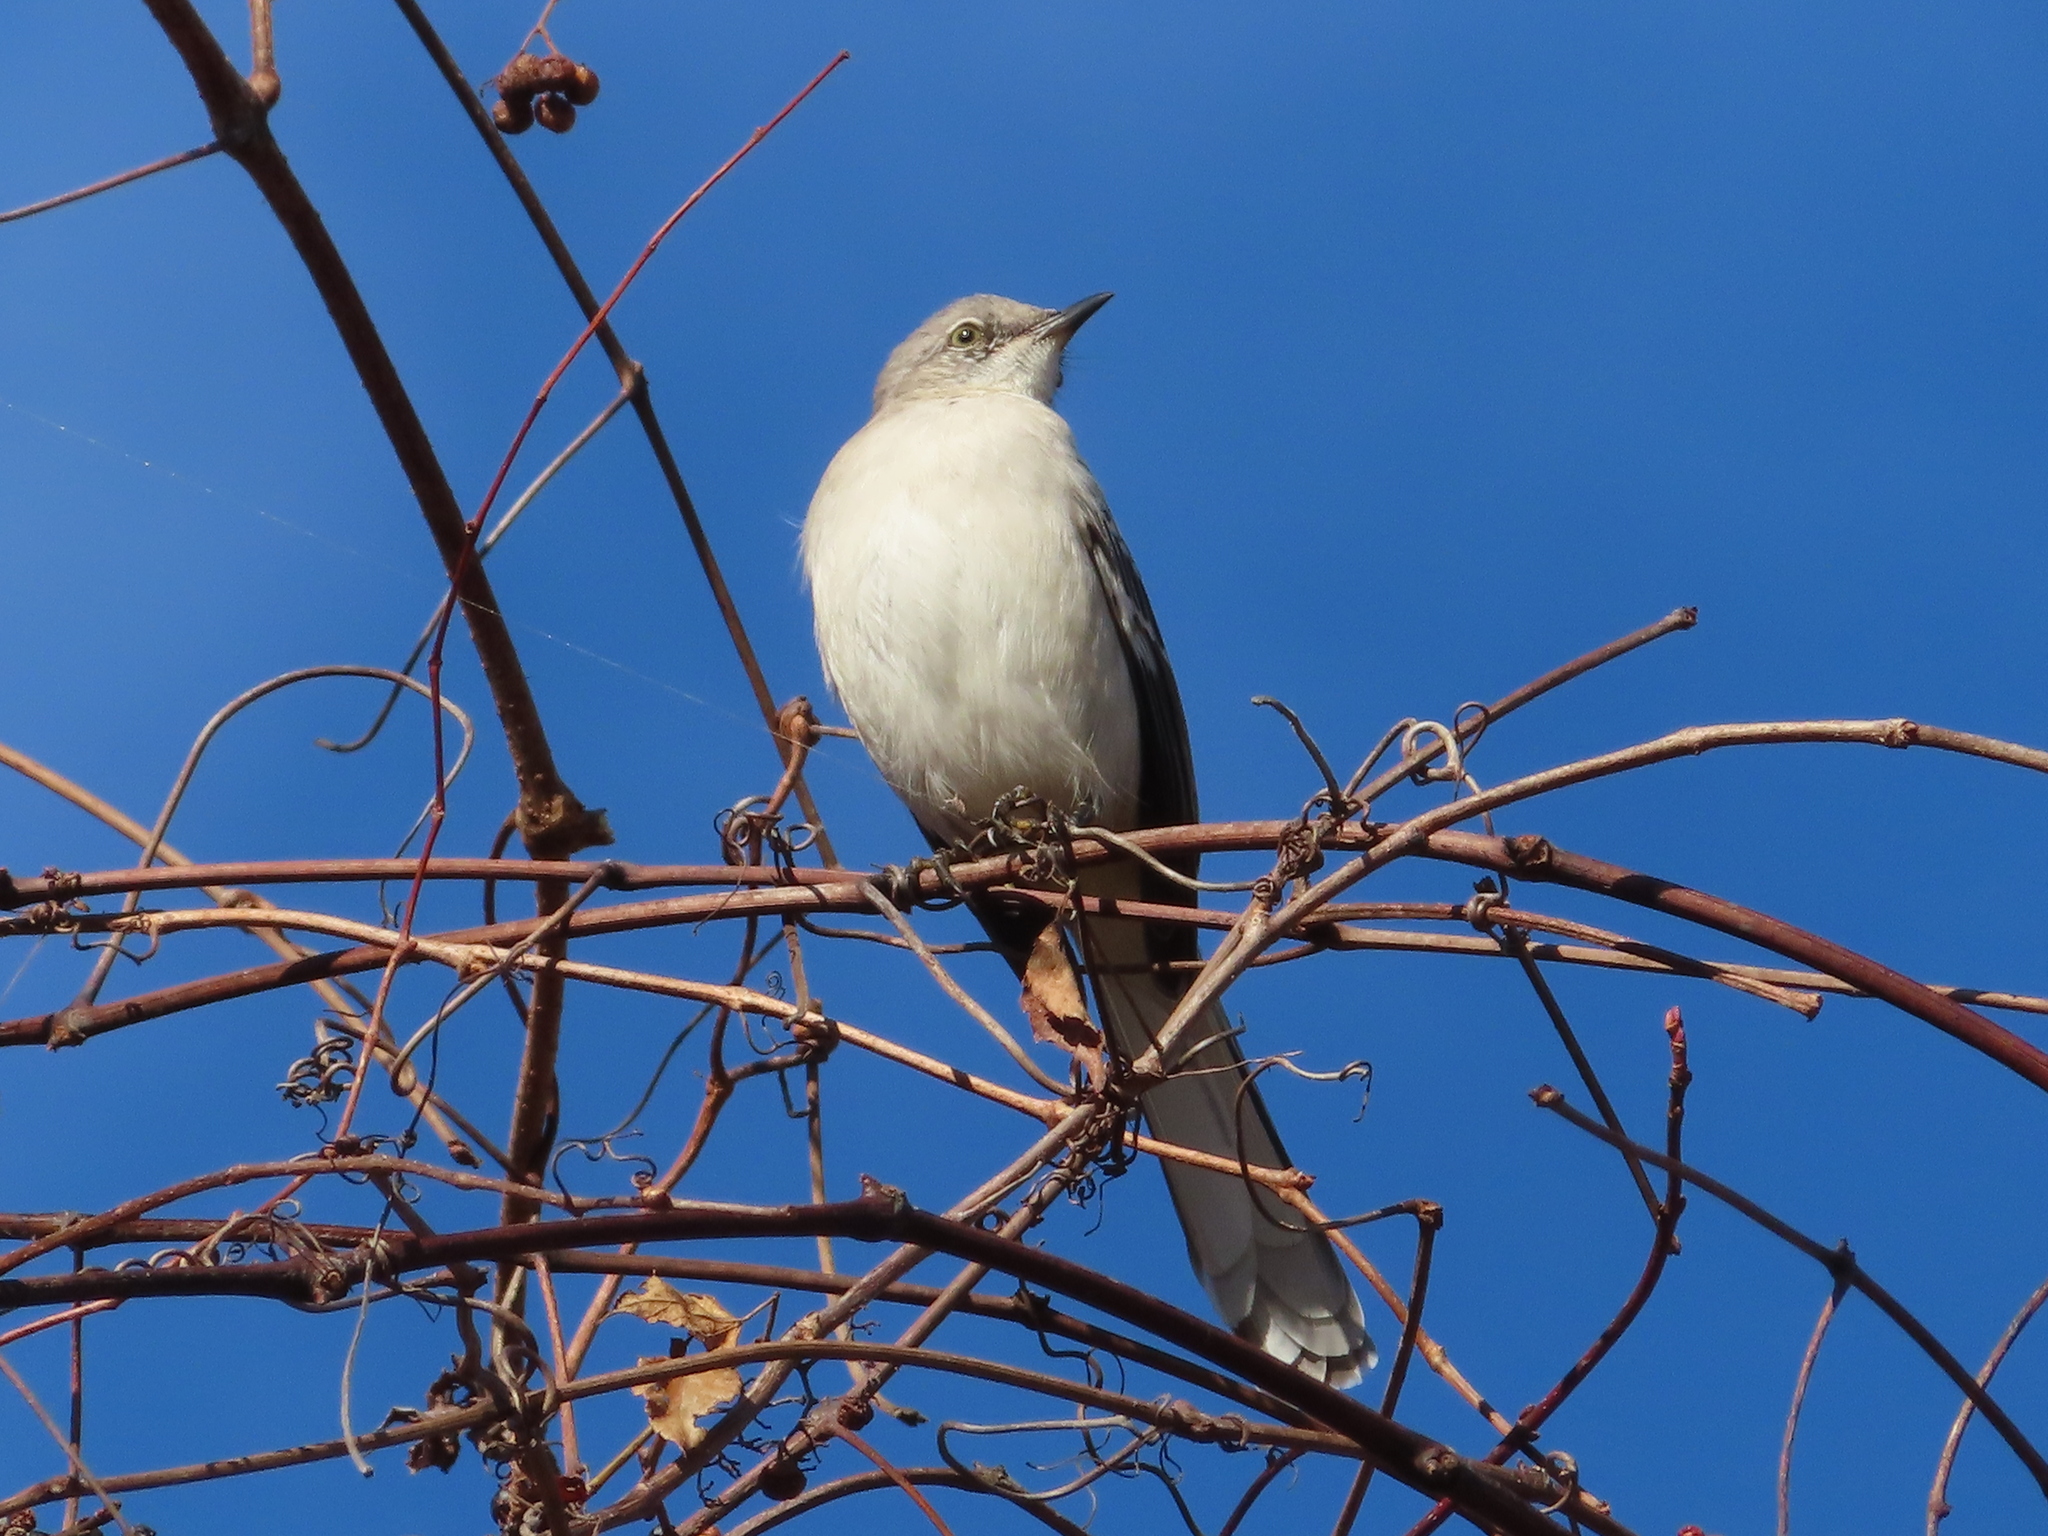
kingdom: Animalia
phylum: Chordata
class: Aves
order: Passeriformes
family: Mimidae
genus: Mimus
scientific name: Mimus polyglottos
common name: Northern mockingbird
